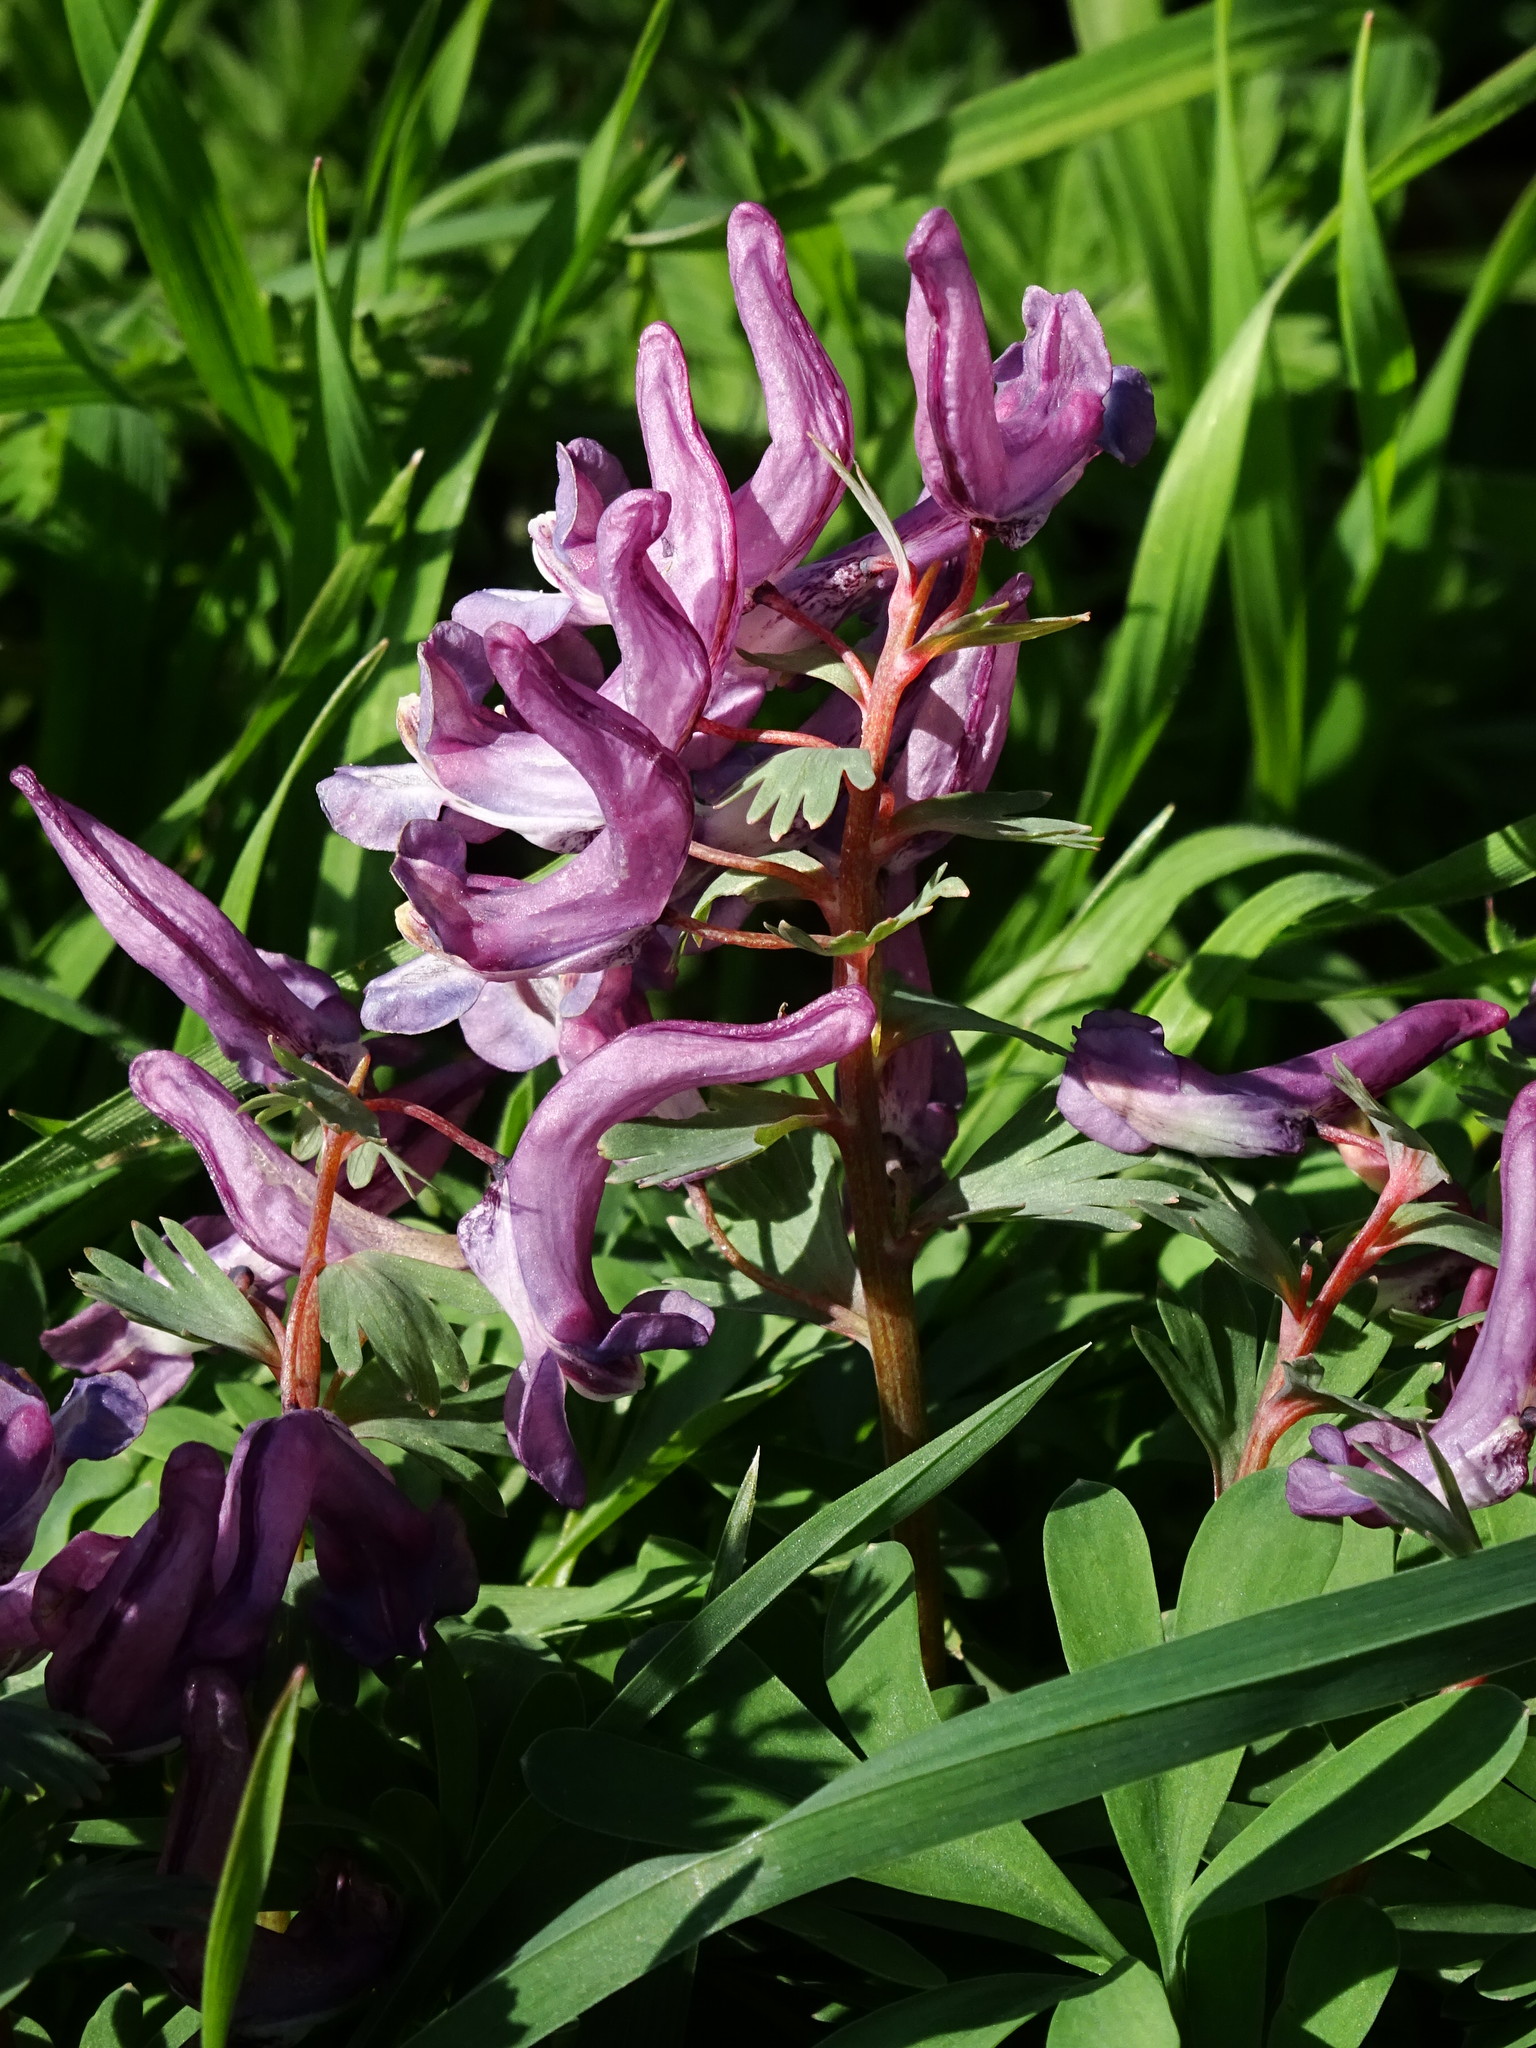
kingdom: Plantae
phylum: Tracheophyta
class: Magnoliopsida
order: Ranunculales
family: Papaveraceae
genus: Corydalis
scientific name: Corydalis solida
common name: Bird-in-a-bush
